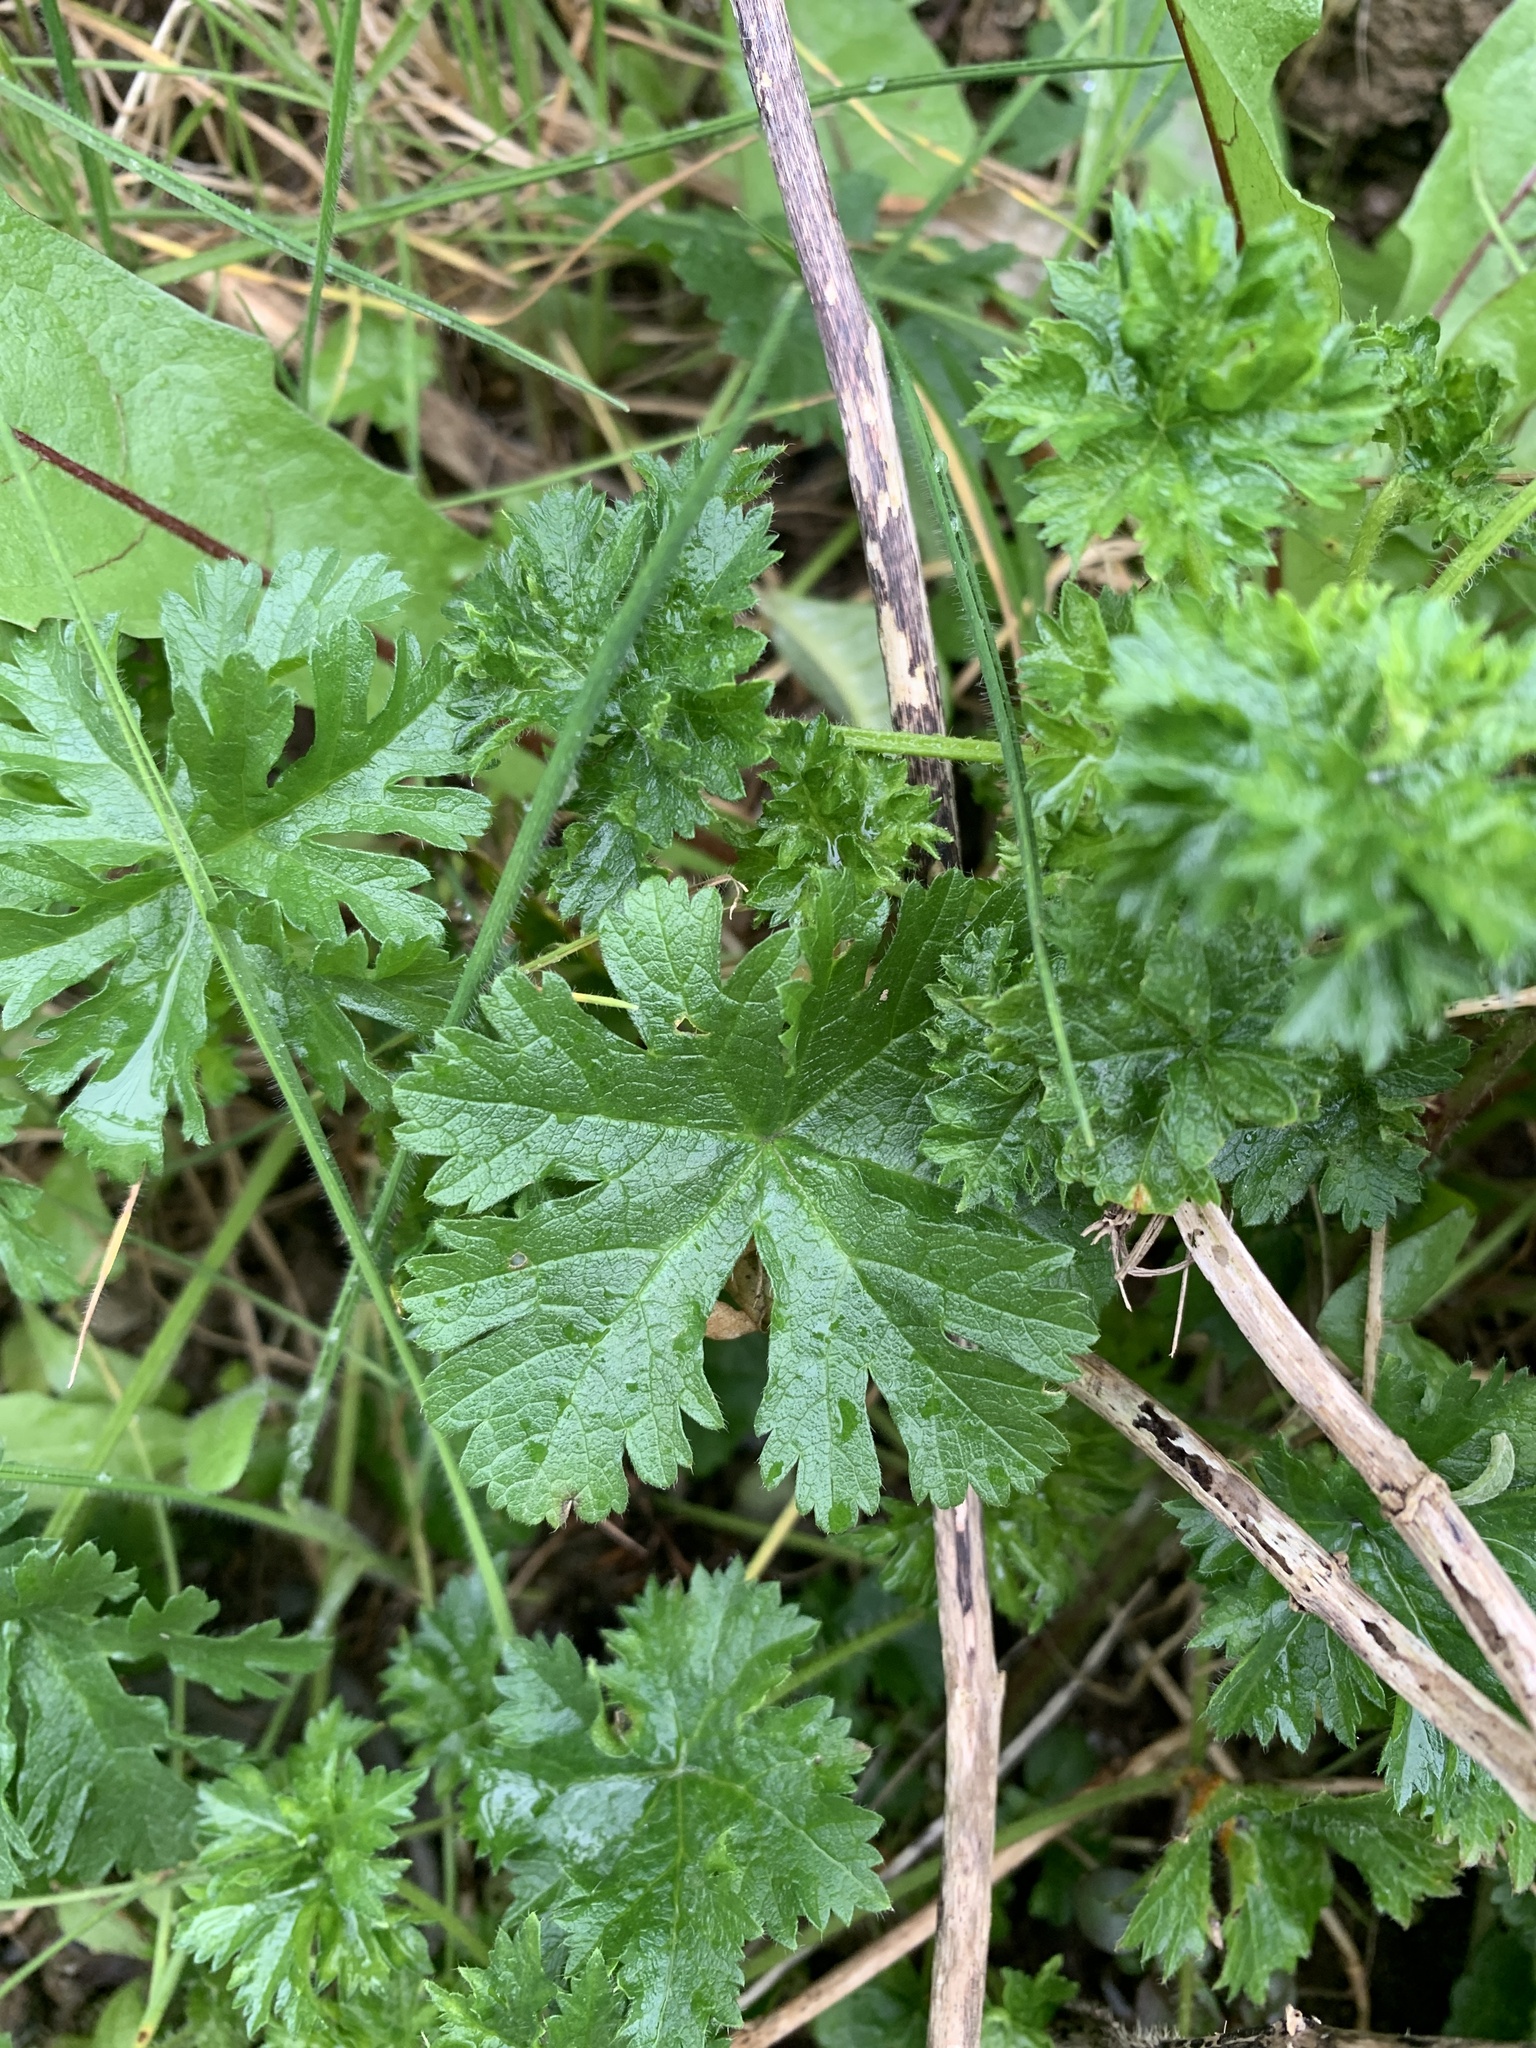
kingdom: Plantae
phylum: Tracheophyta
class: Magnoliopsida
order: Malvales
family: Malvaceae
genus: Malva
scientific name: Malva moschata
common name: Musk mallow
